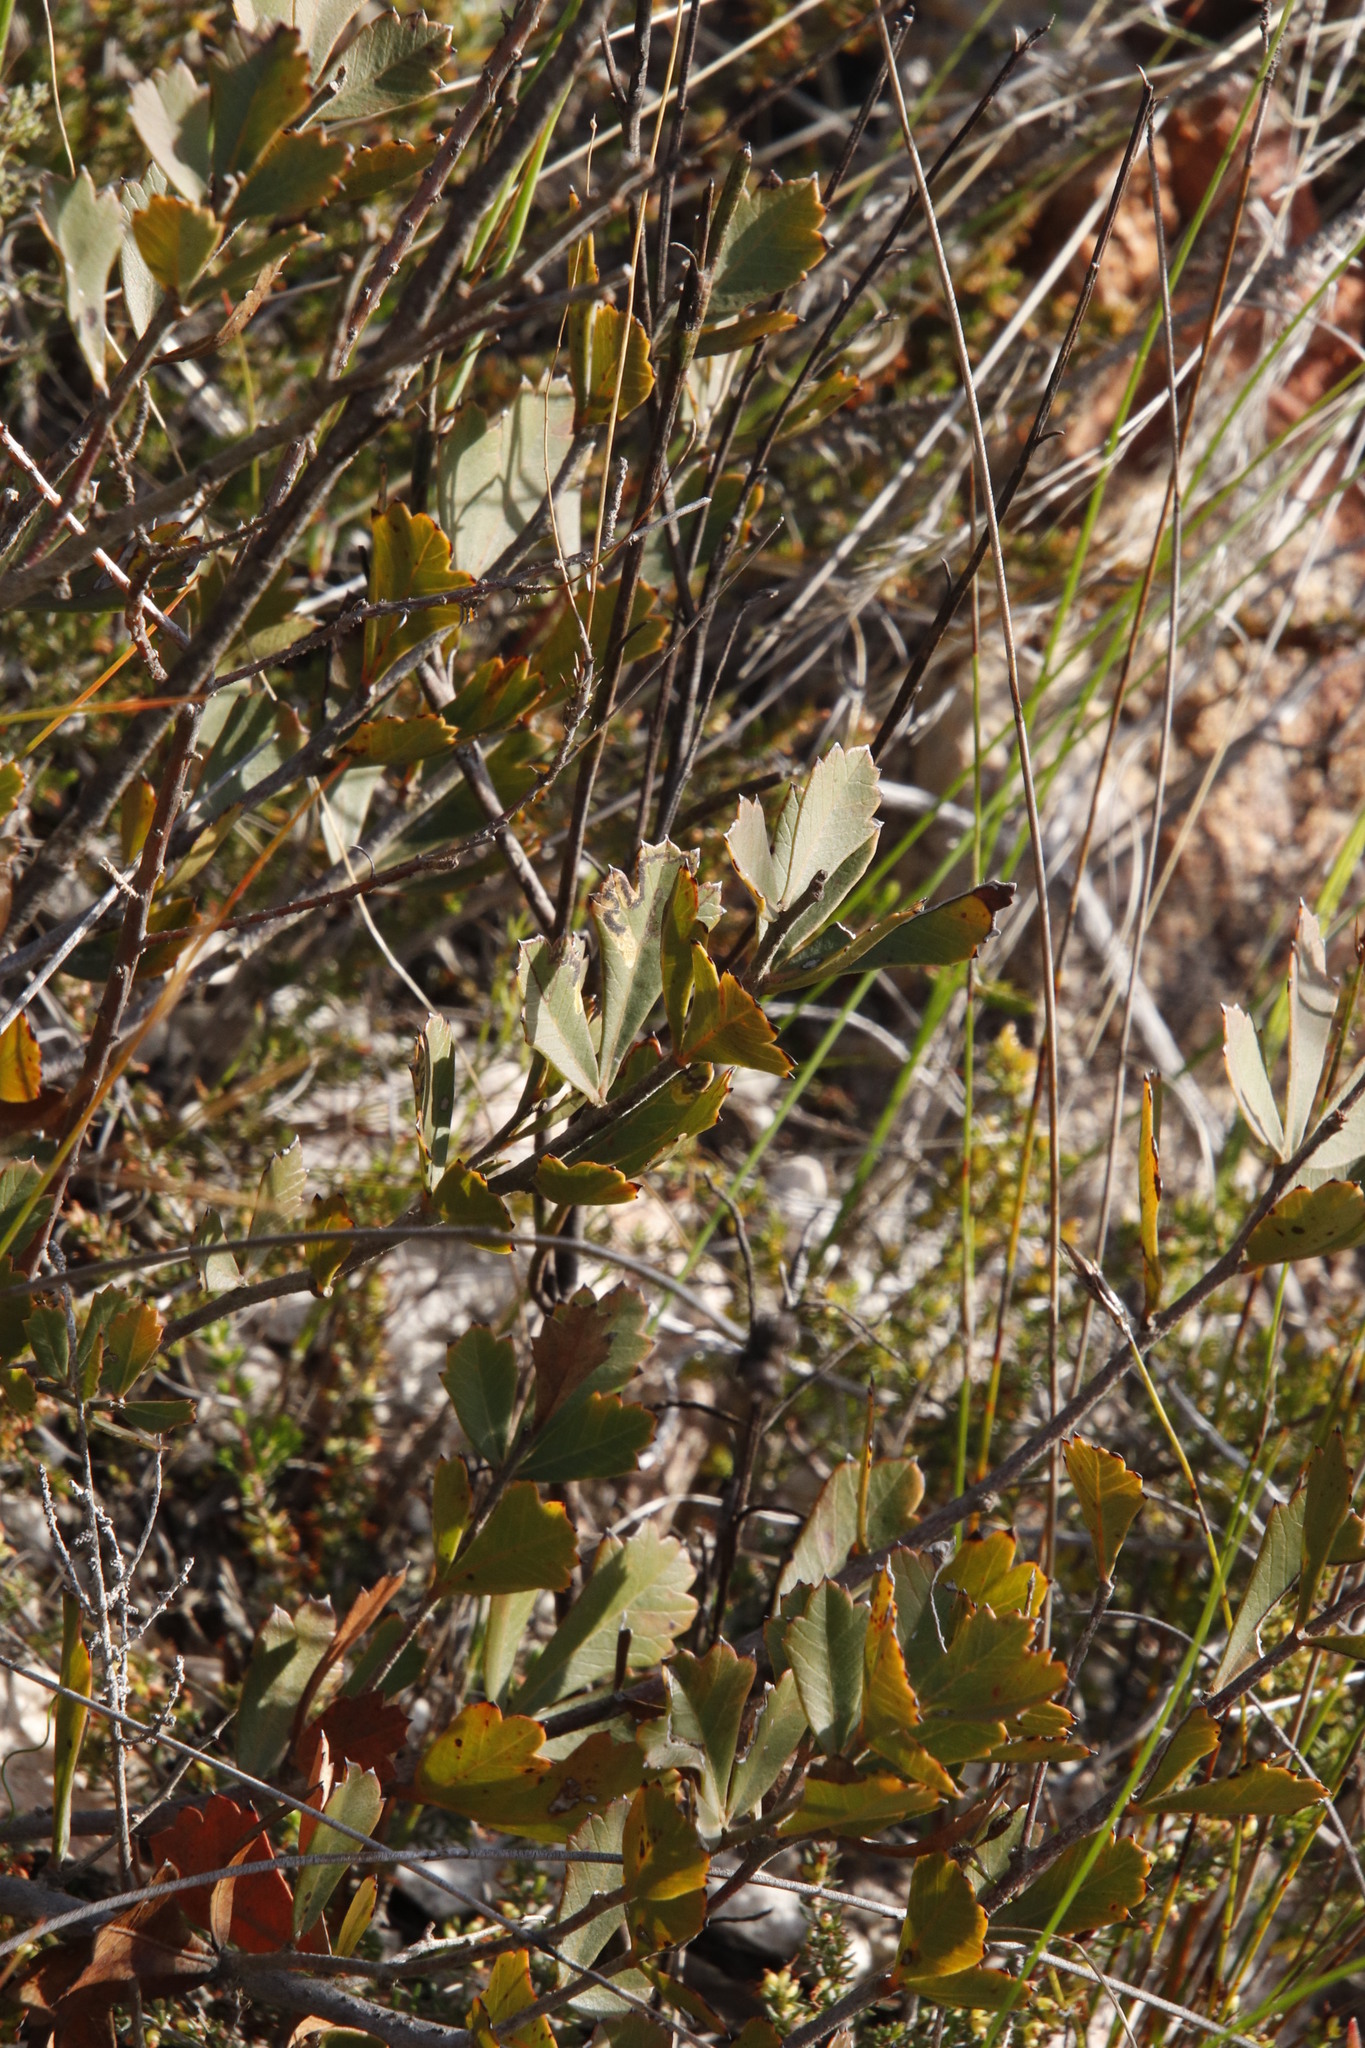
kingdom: Plantae
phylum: Tracheophyta
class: Magnoliopsida
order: Sapindales
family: Anacardiaceae
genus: Searsia
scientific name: Searsia cuneifolia
